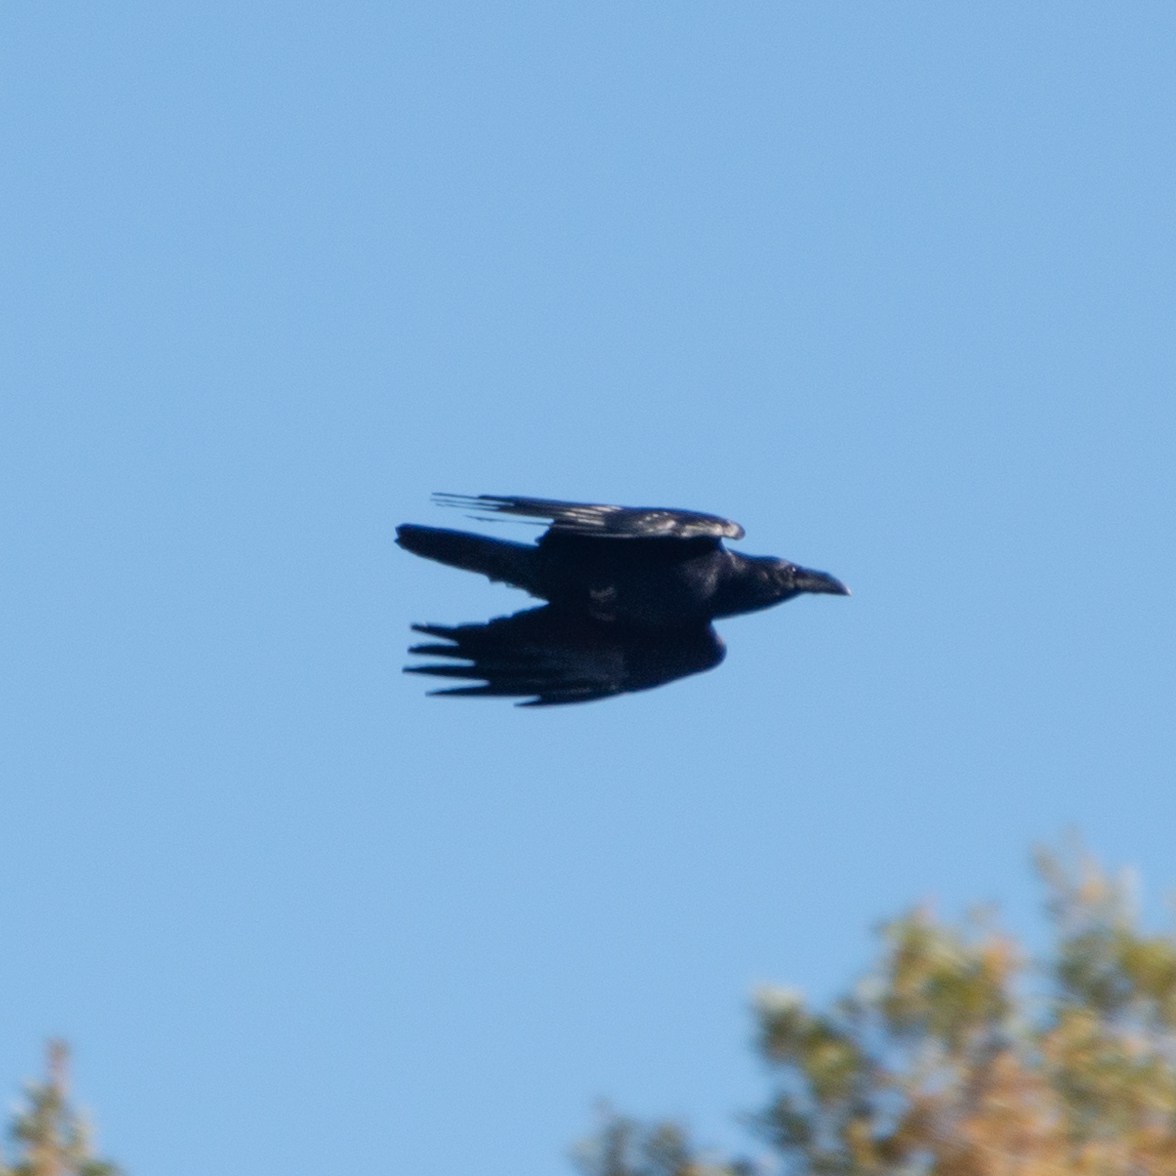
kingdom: Animalia
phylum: Chordata
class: Aves
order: Passeriformes
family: Corvidae
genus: Corvus
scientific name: Corvus corax
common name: Common raven
